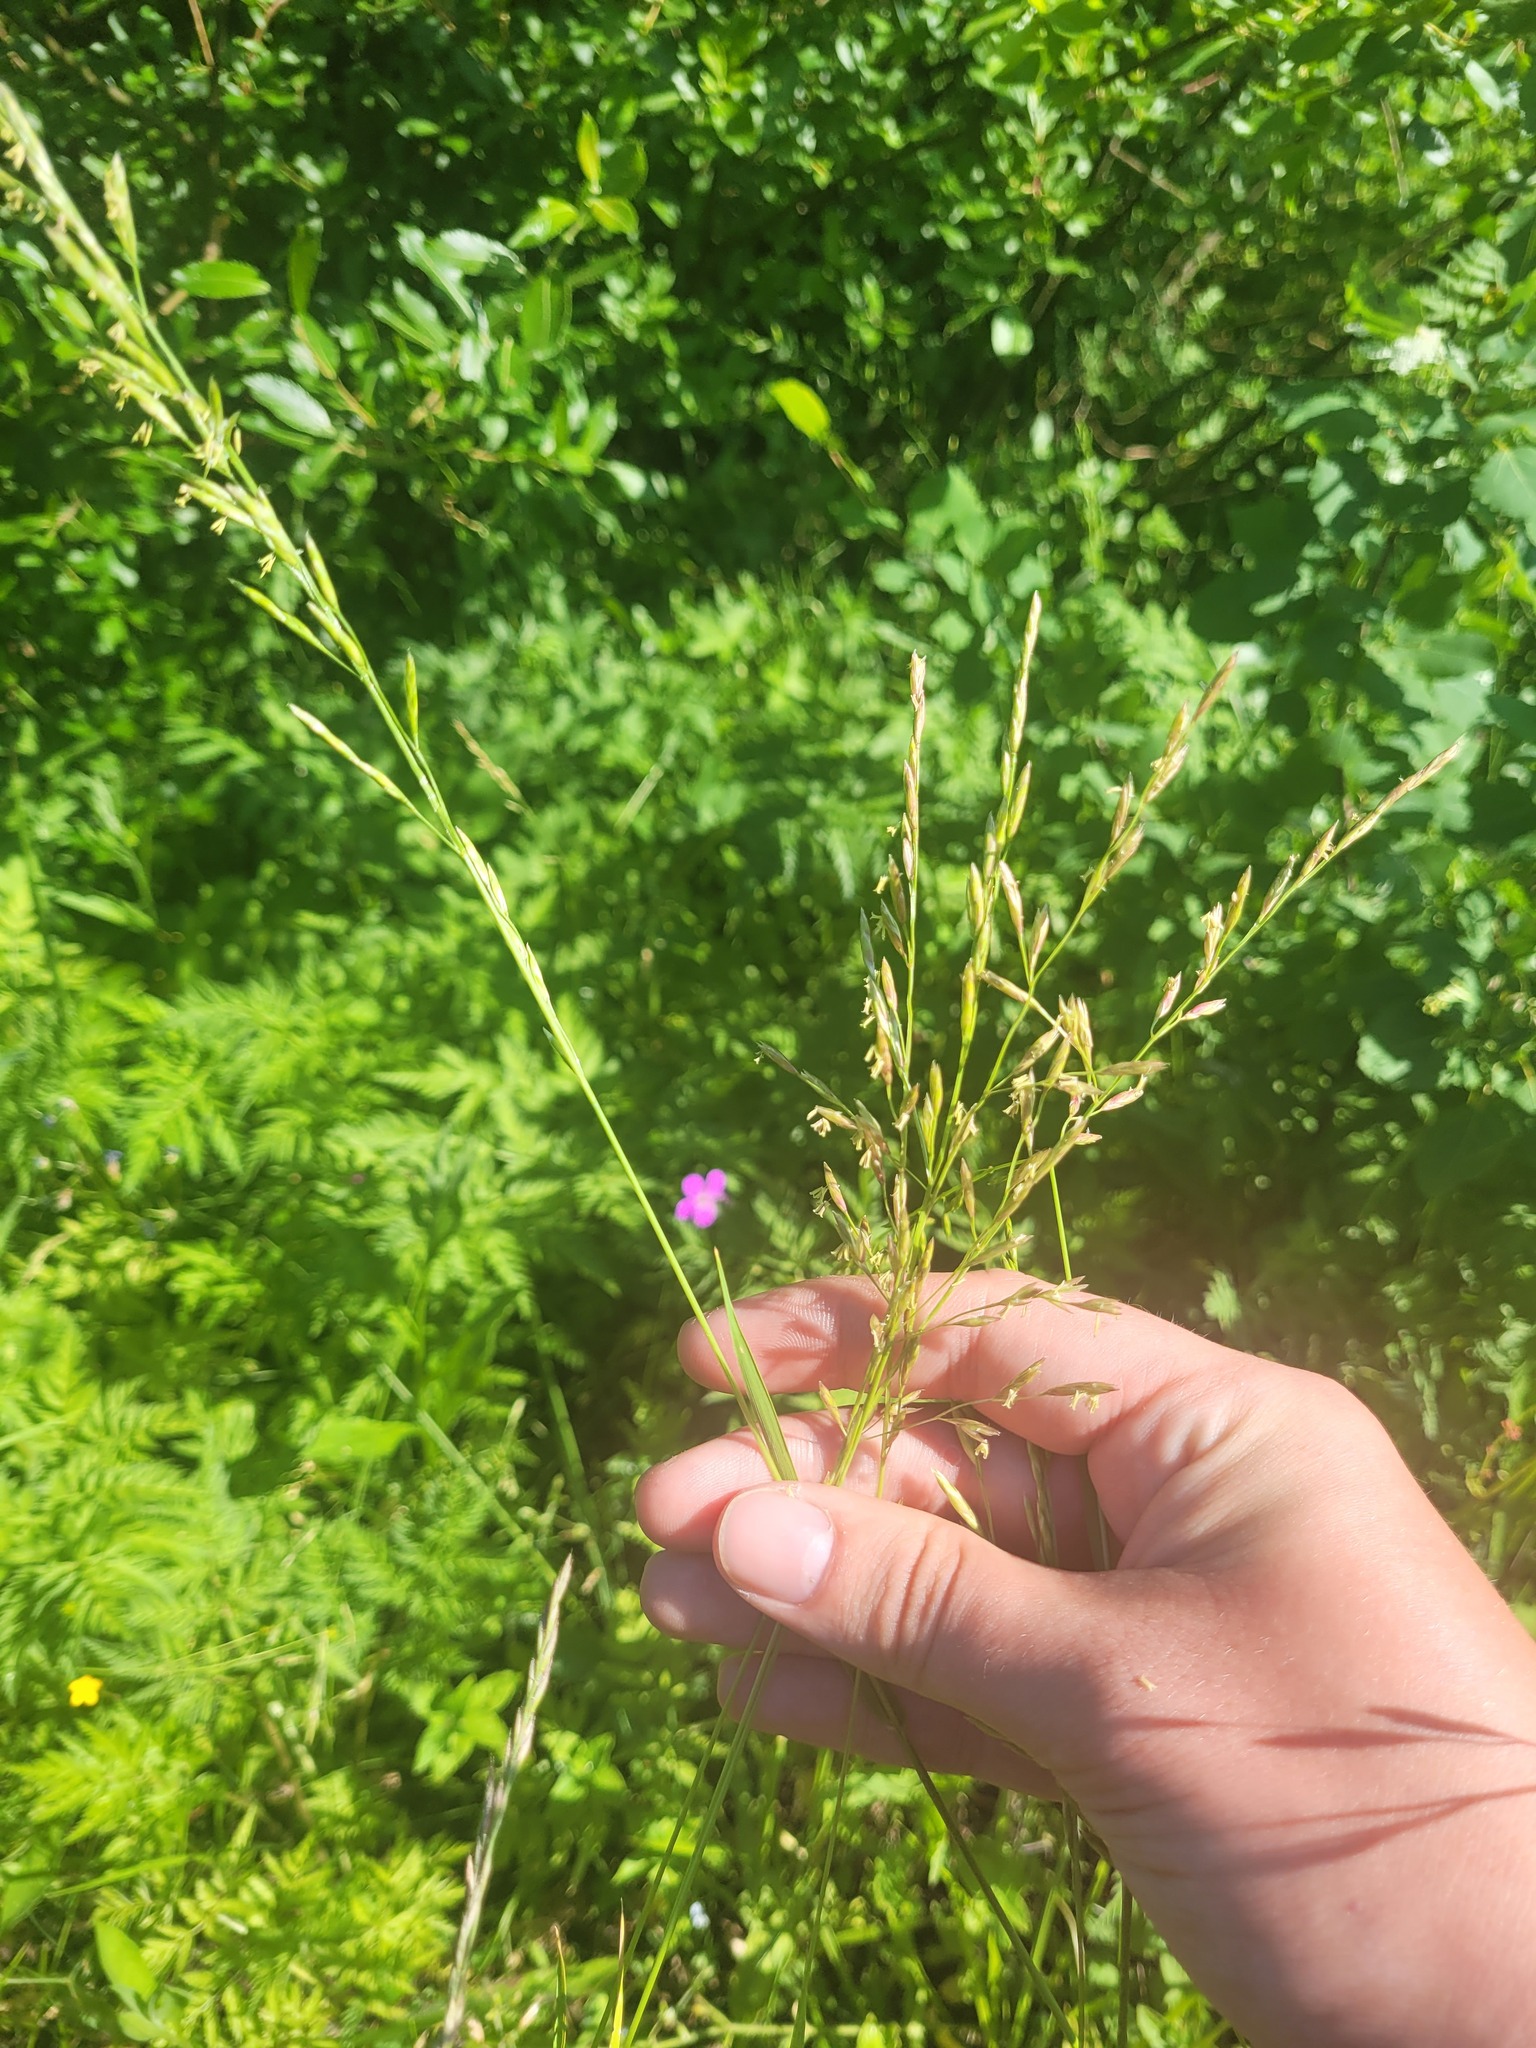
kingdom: Plantae
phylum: Tracheophyta
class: Liliopsida
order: Poales
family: Poaceae
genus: Lolium
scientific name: Lolium pratense
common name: Dover grass
